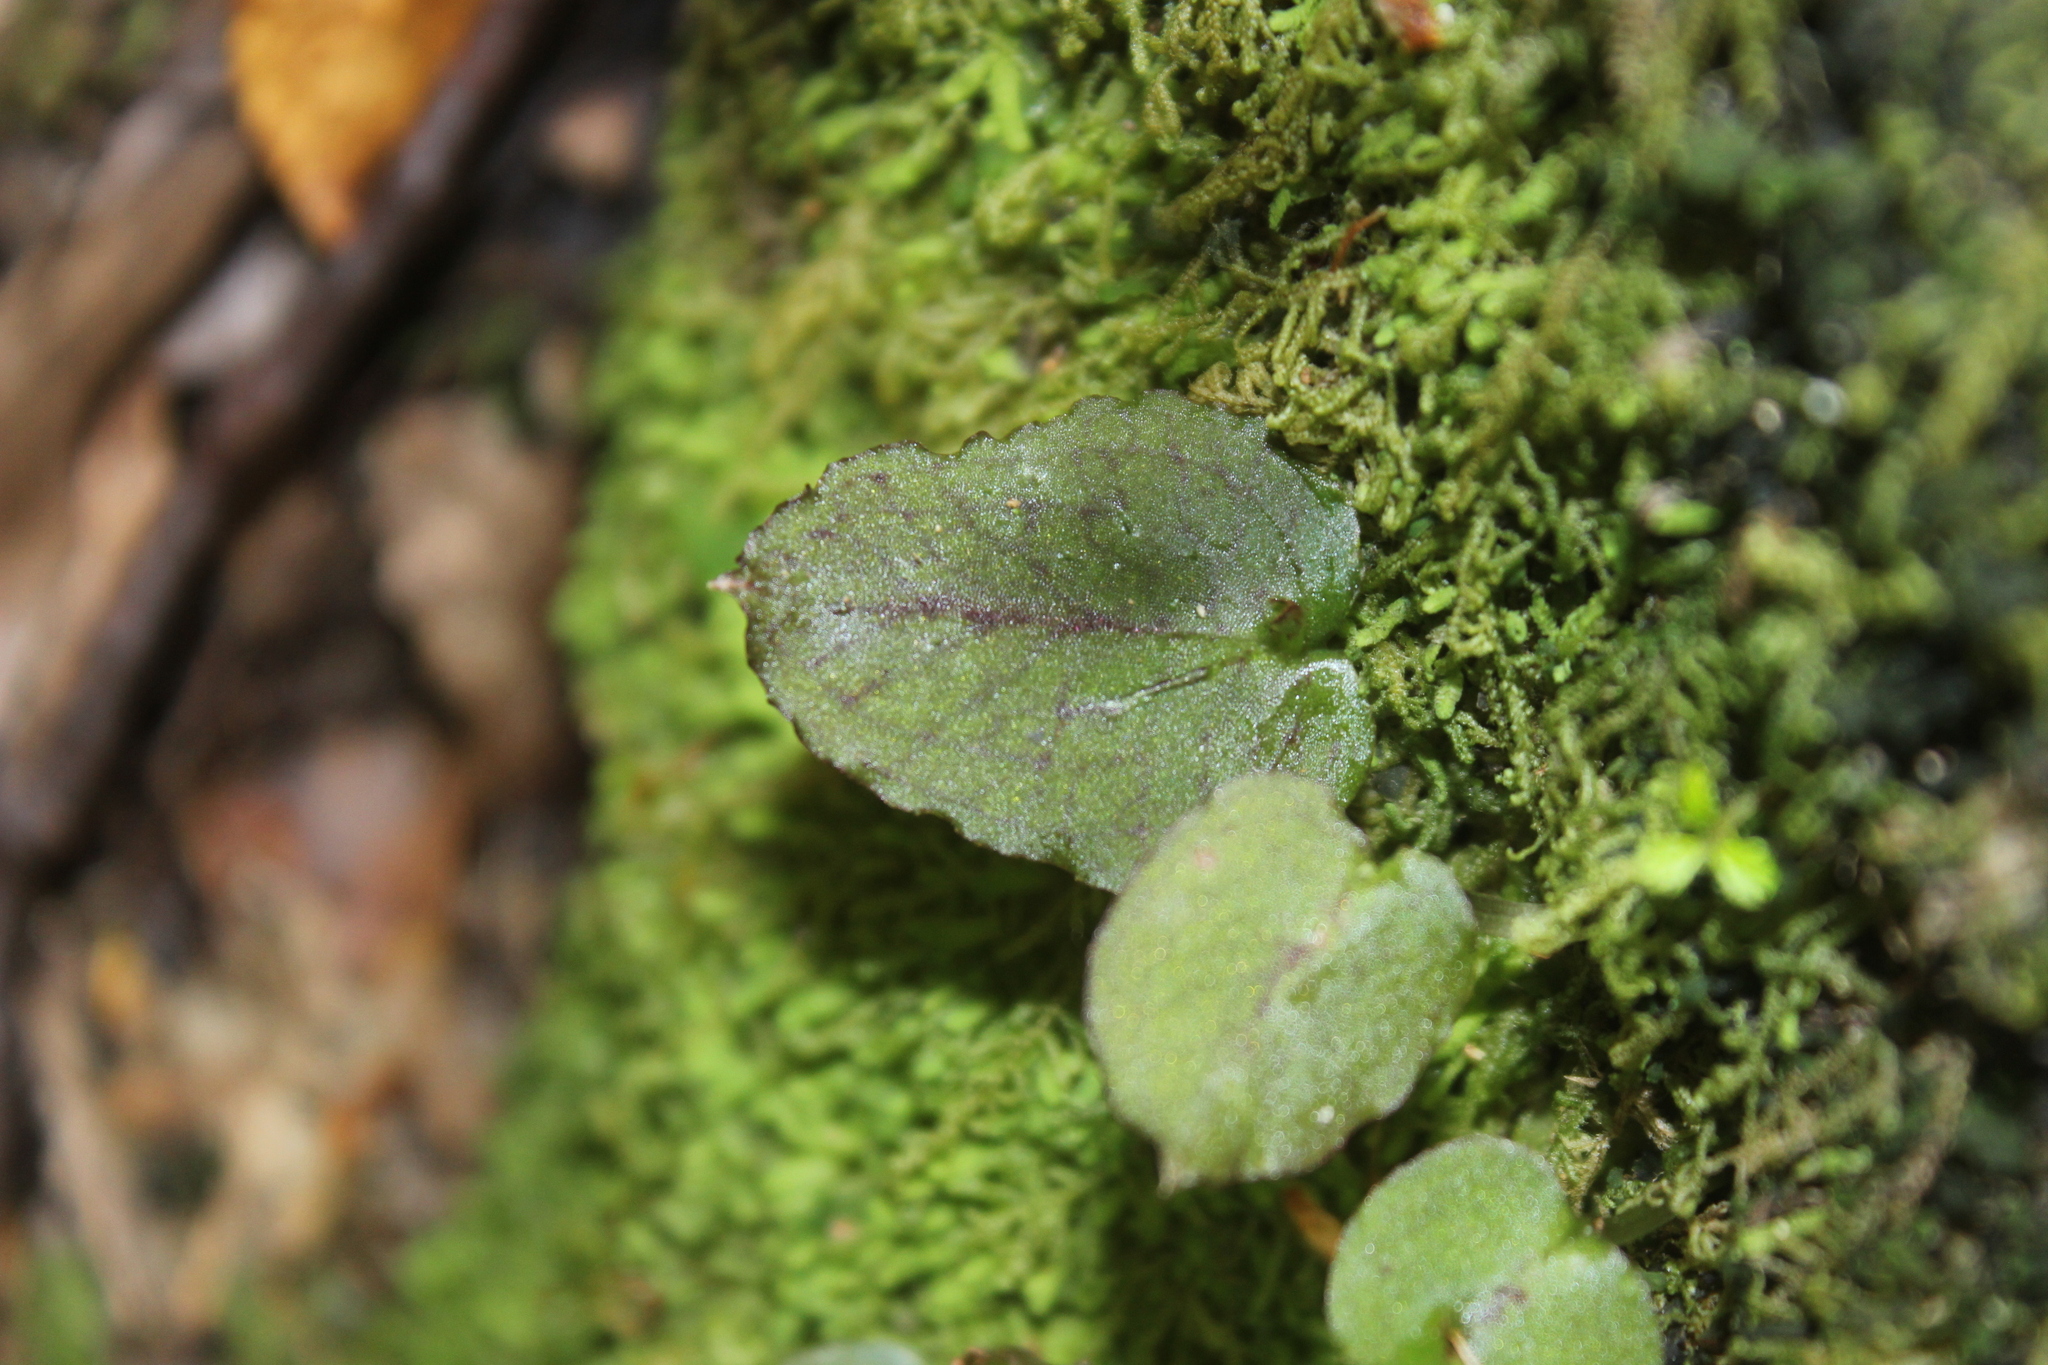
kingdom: Plantae
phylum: Tracheophyta
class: Liliopsida
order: Asparagales
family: Orchidaceae
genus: Corybas
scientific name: Corybas oblongus
